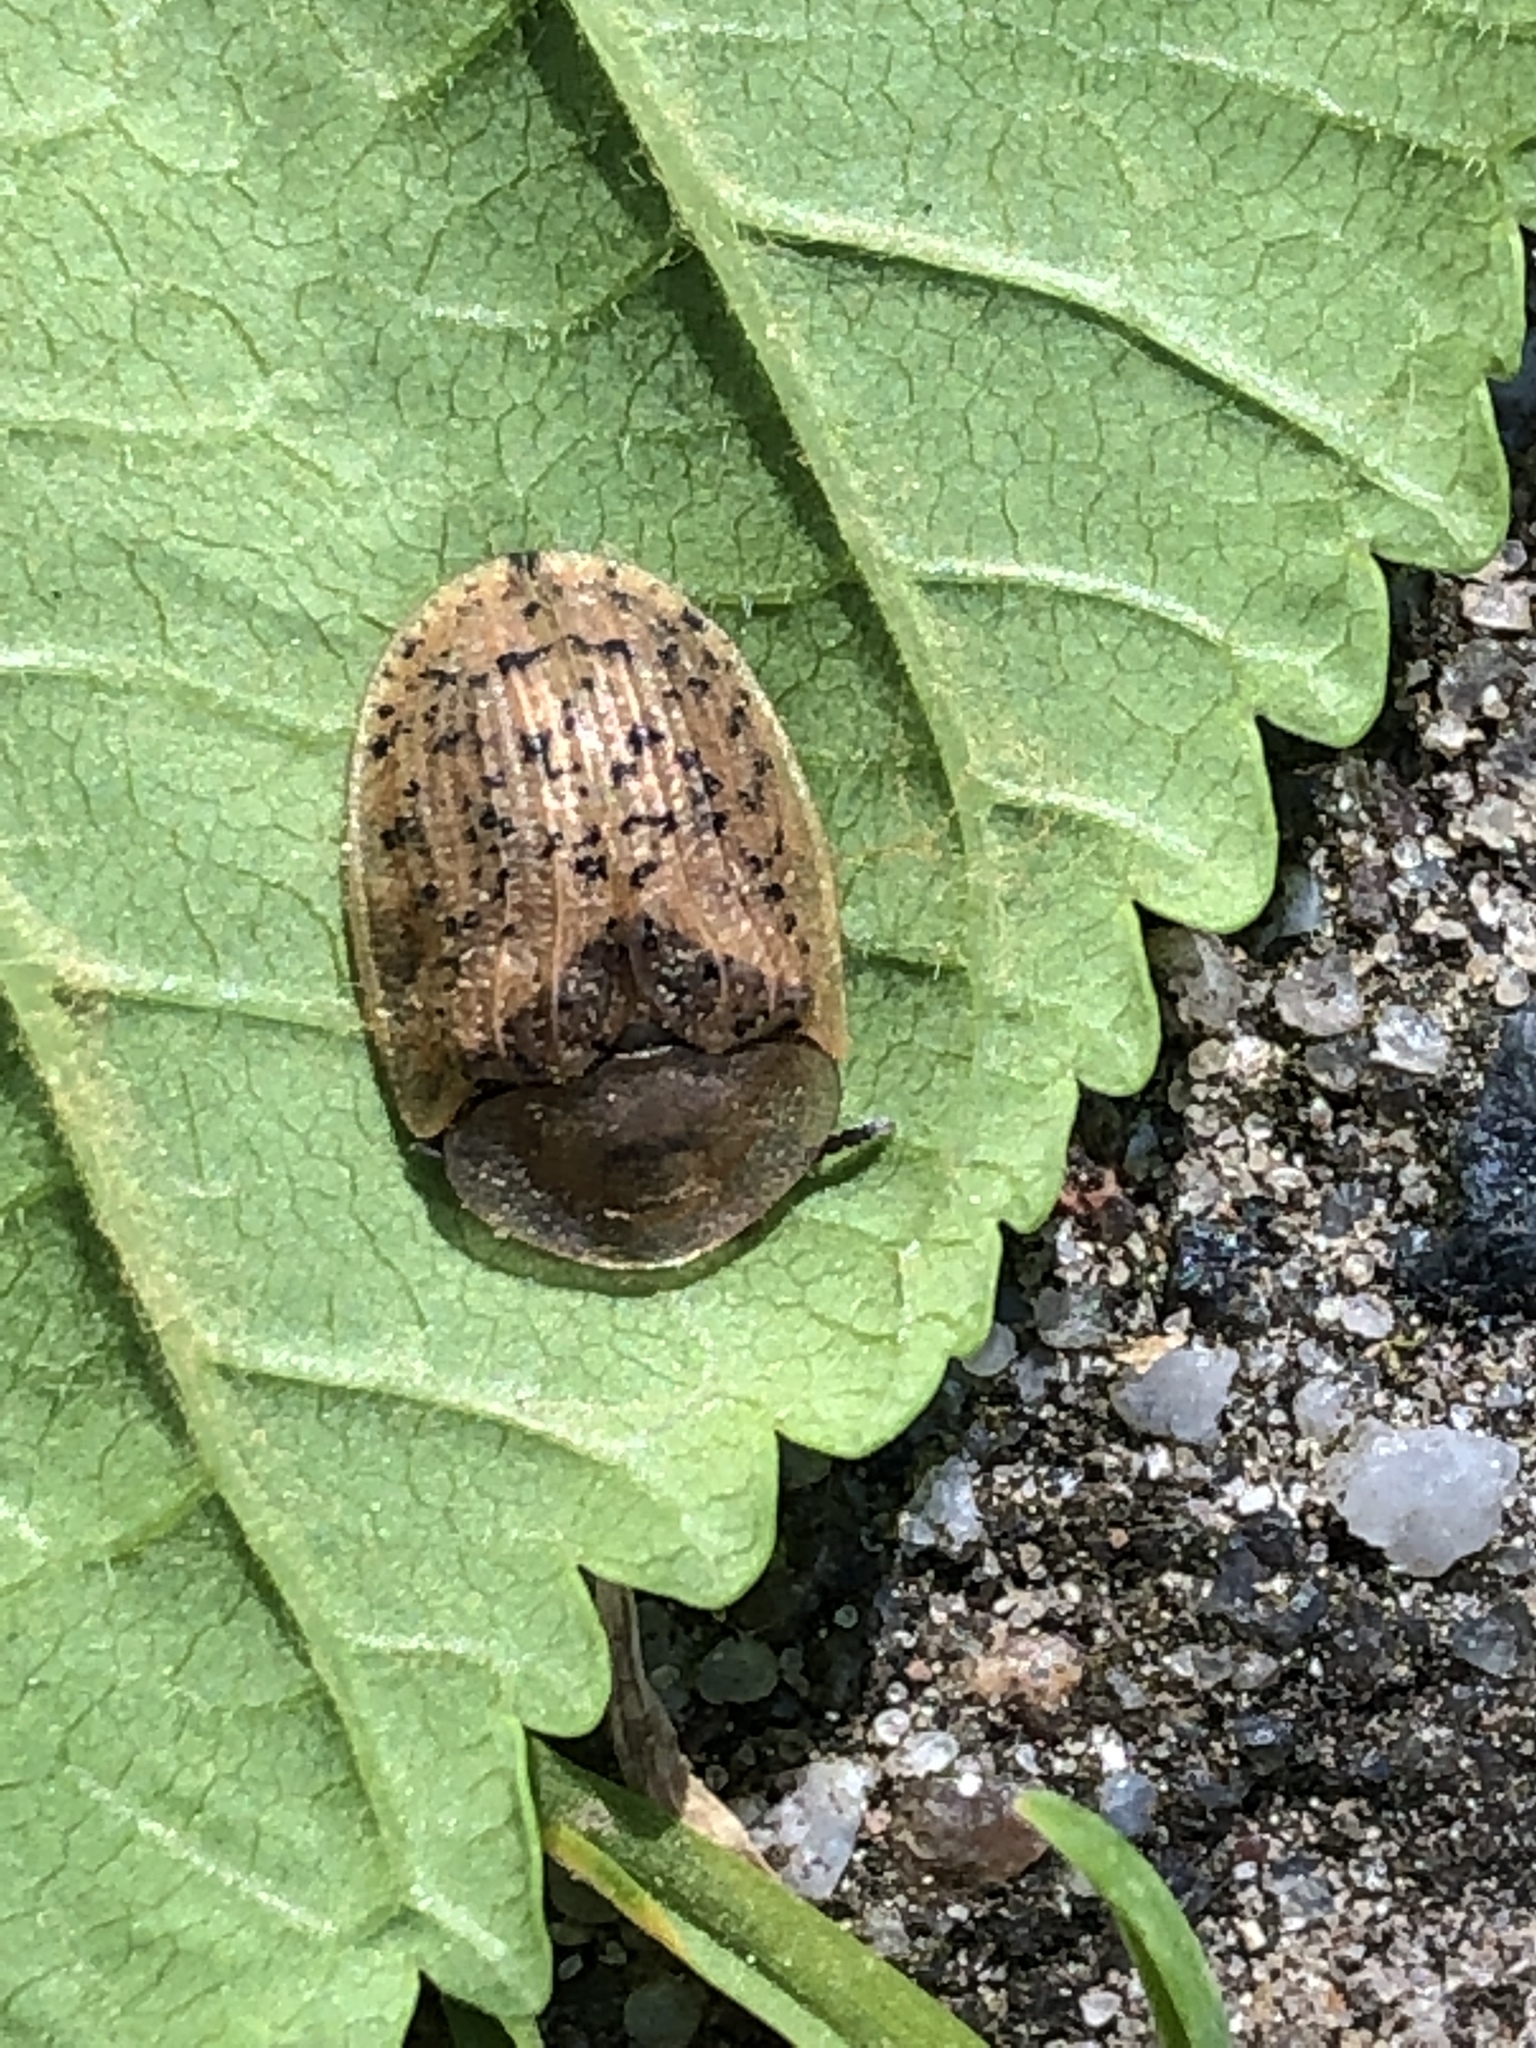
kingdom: Animalia
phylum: Arthropoda
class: Insecta
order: Coleoptera
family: Chrysomelidae
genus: Cassida
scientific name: Cassida nebulosa
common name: Beet tortoise beetle
